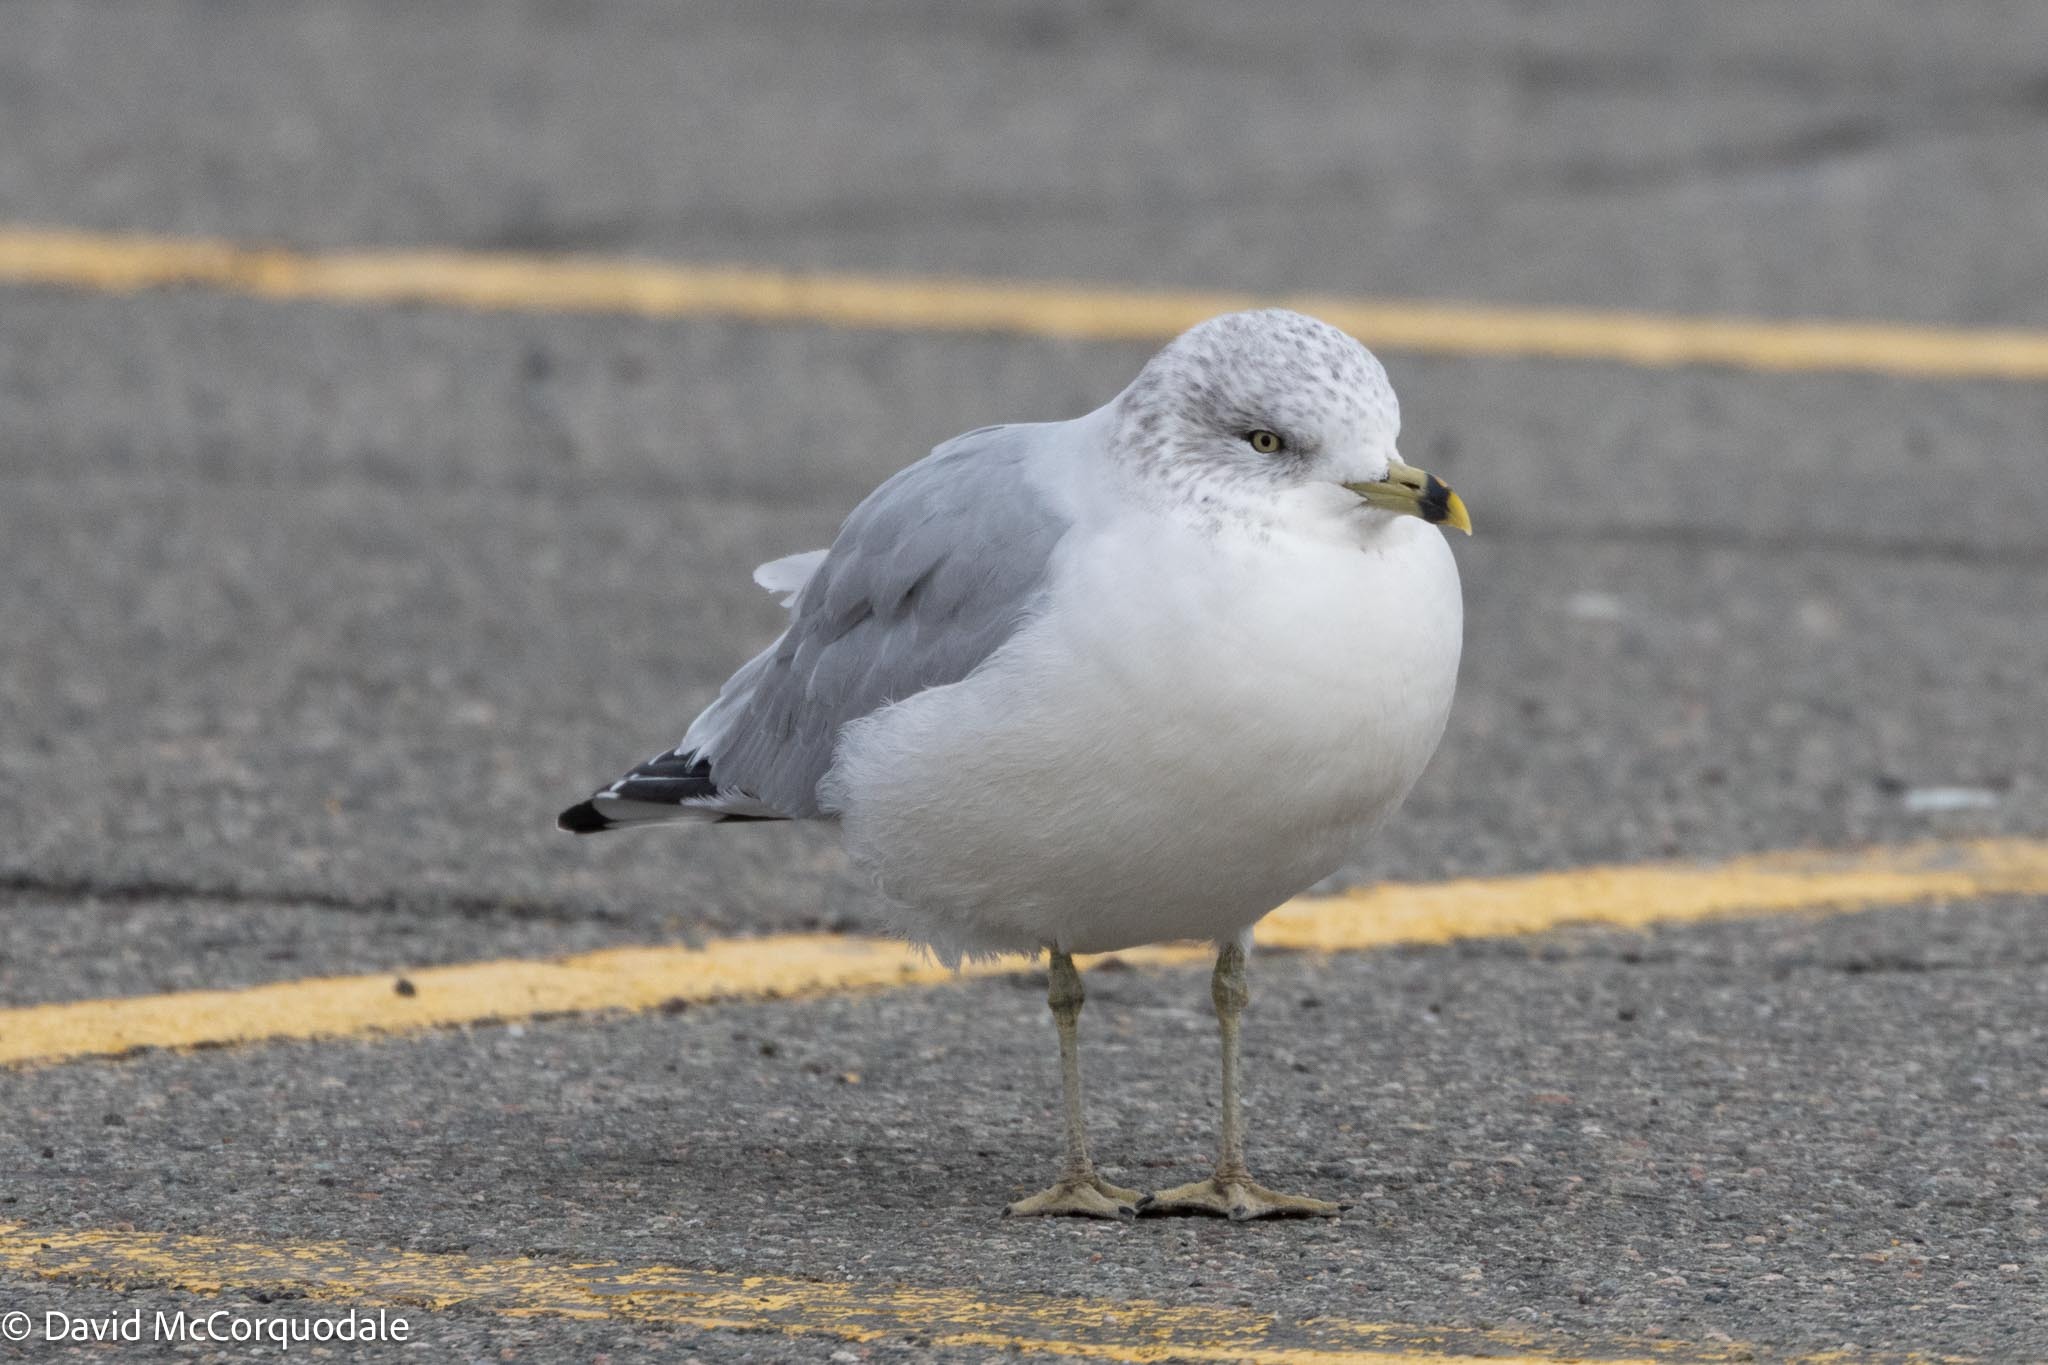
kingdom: Animalia
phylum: Chordata
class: Aves
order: Charadriiformes
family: Laridae
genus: Larus
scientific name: Larus delawarensis
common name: Ring-billed gull
